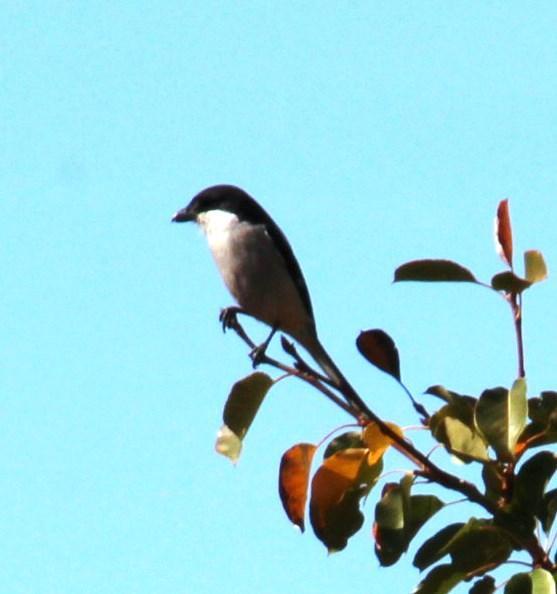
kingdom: Animalia
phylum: Chordata
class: Aves
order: Passeriformes
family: Laniidae
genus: Lanius
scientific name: Lanius collaris
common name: Southern fiscal
